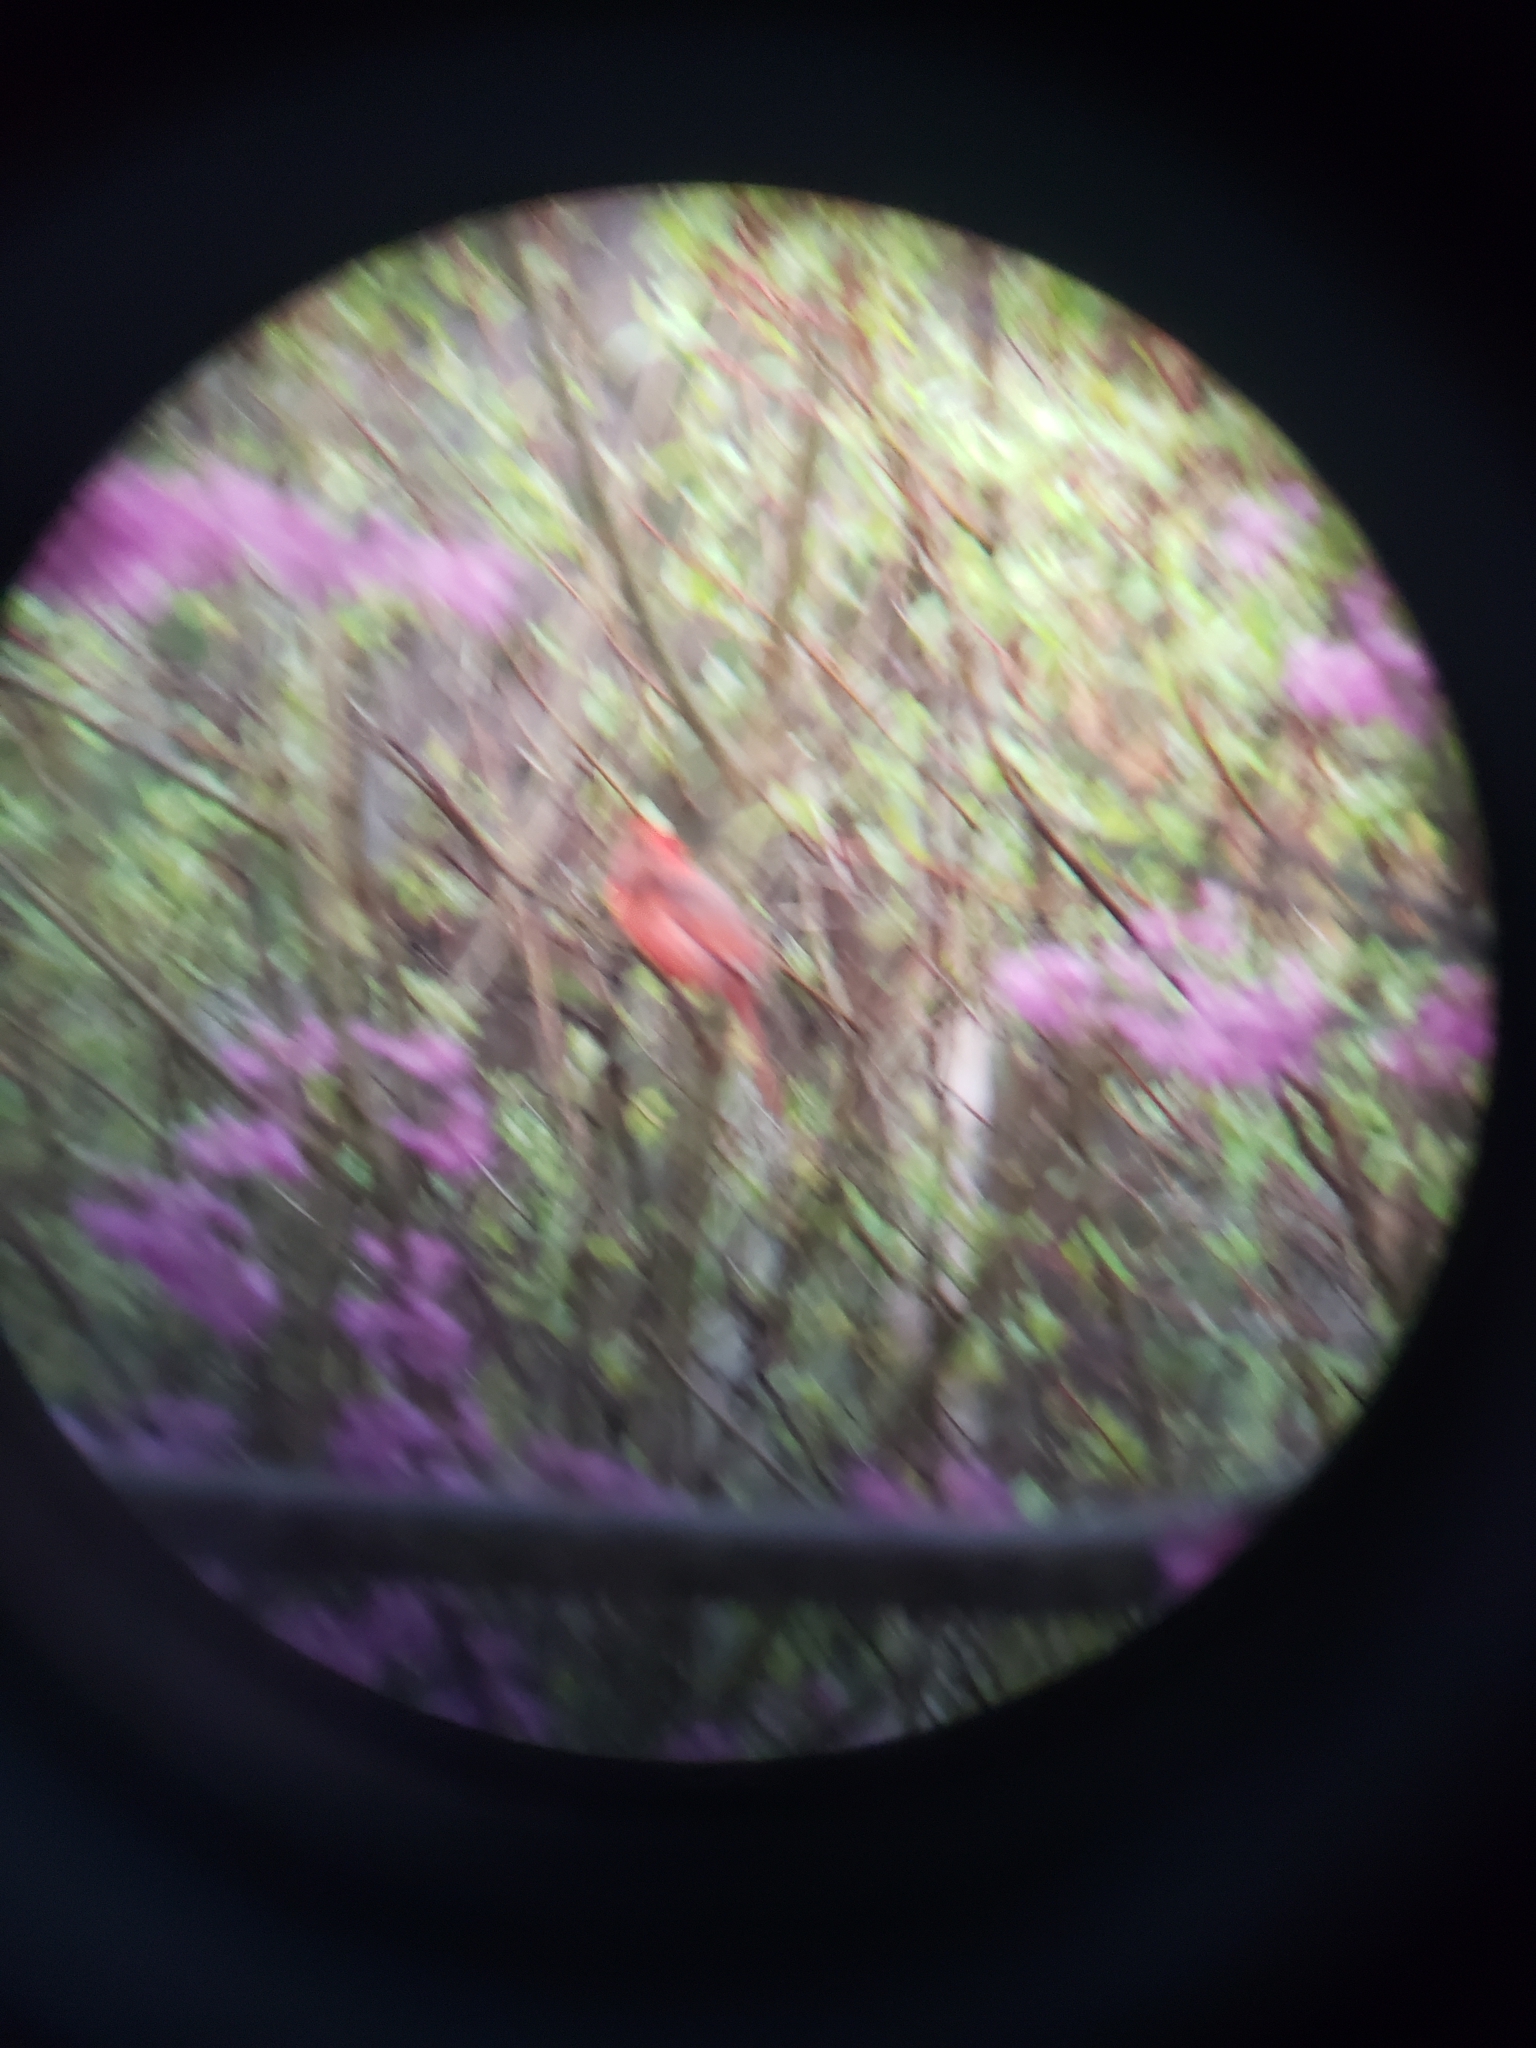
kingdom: Animalia
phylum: Chordata
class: Aves
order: Passeriformes
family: Cardinalidae
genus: Cardinalis
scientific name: Cardinalis cardinalis
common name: Northern cardinal
